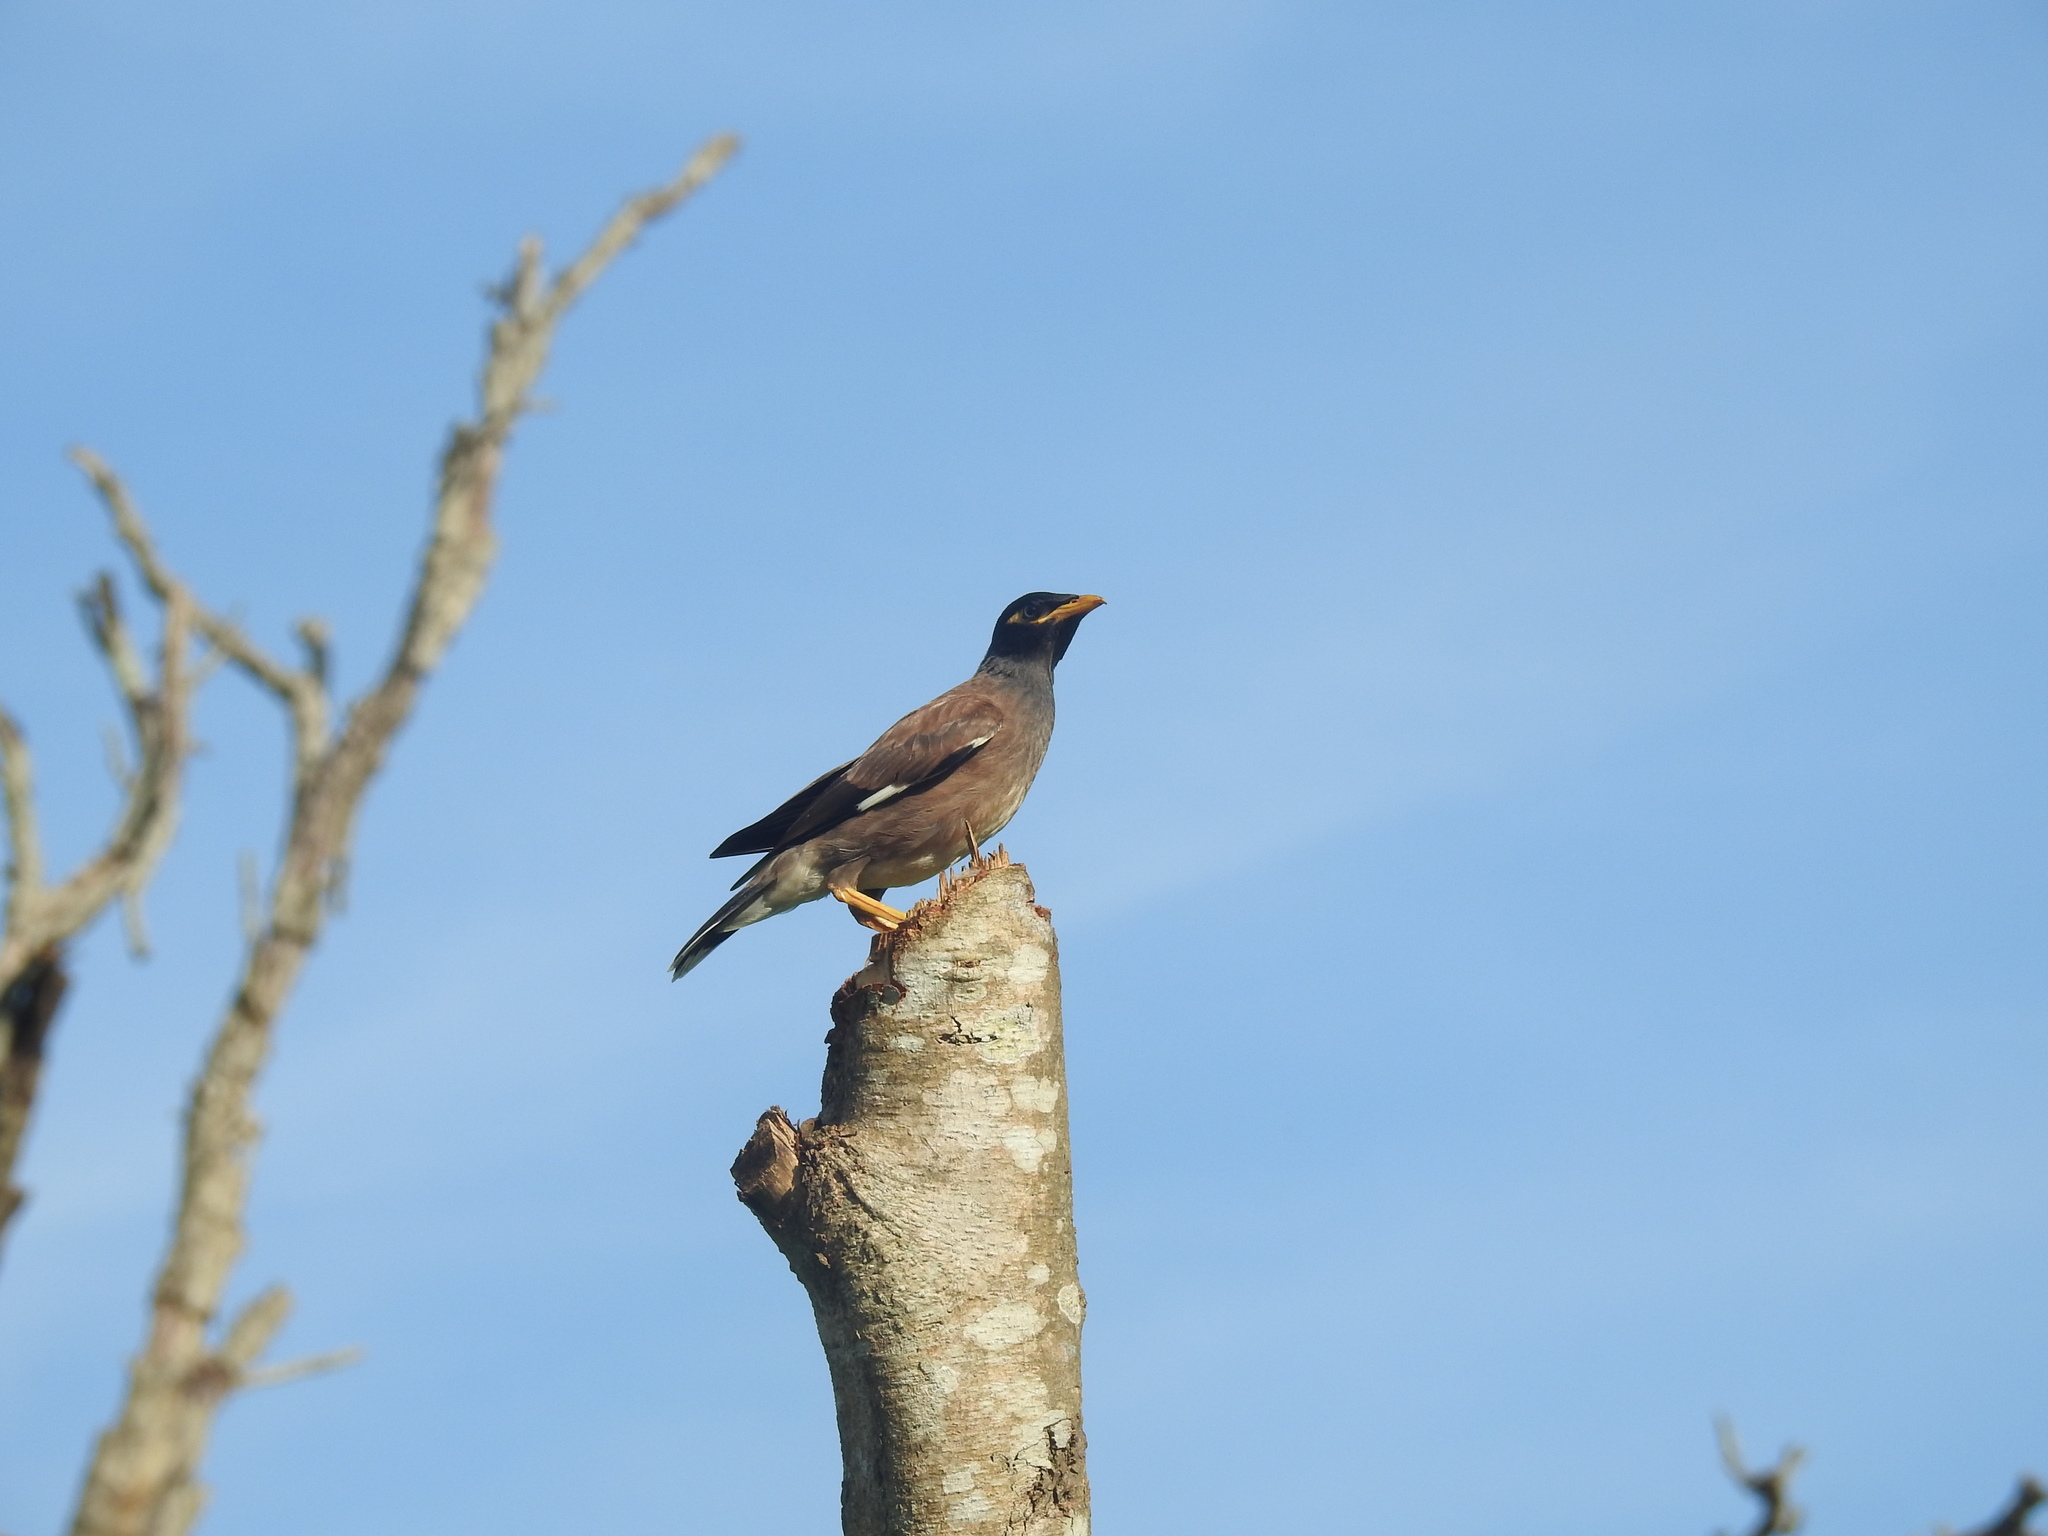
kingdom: Animalia
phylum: Chordata
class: Aves
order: Passeriformes
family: Sturnidae
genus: Acridotheres
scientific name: Acridotheres tristis
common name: Common myna
